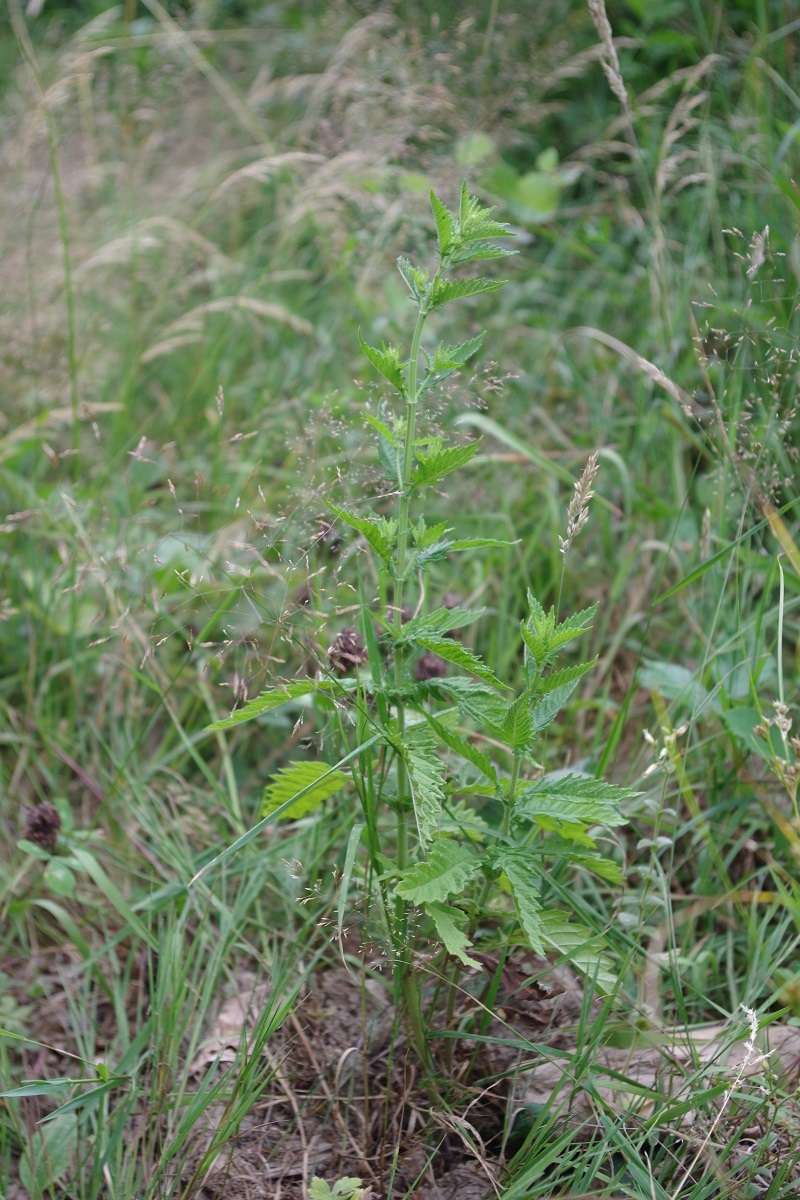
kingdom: Plantae
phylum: Tracheophyta
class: Magnoliopsida
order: Lamiales
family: Lamiaceae
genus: Lycopus
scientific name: Lycopus europaeus
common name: European bugleweed
